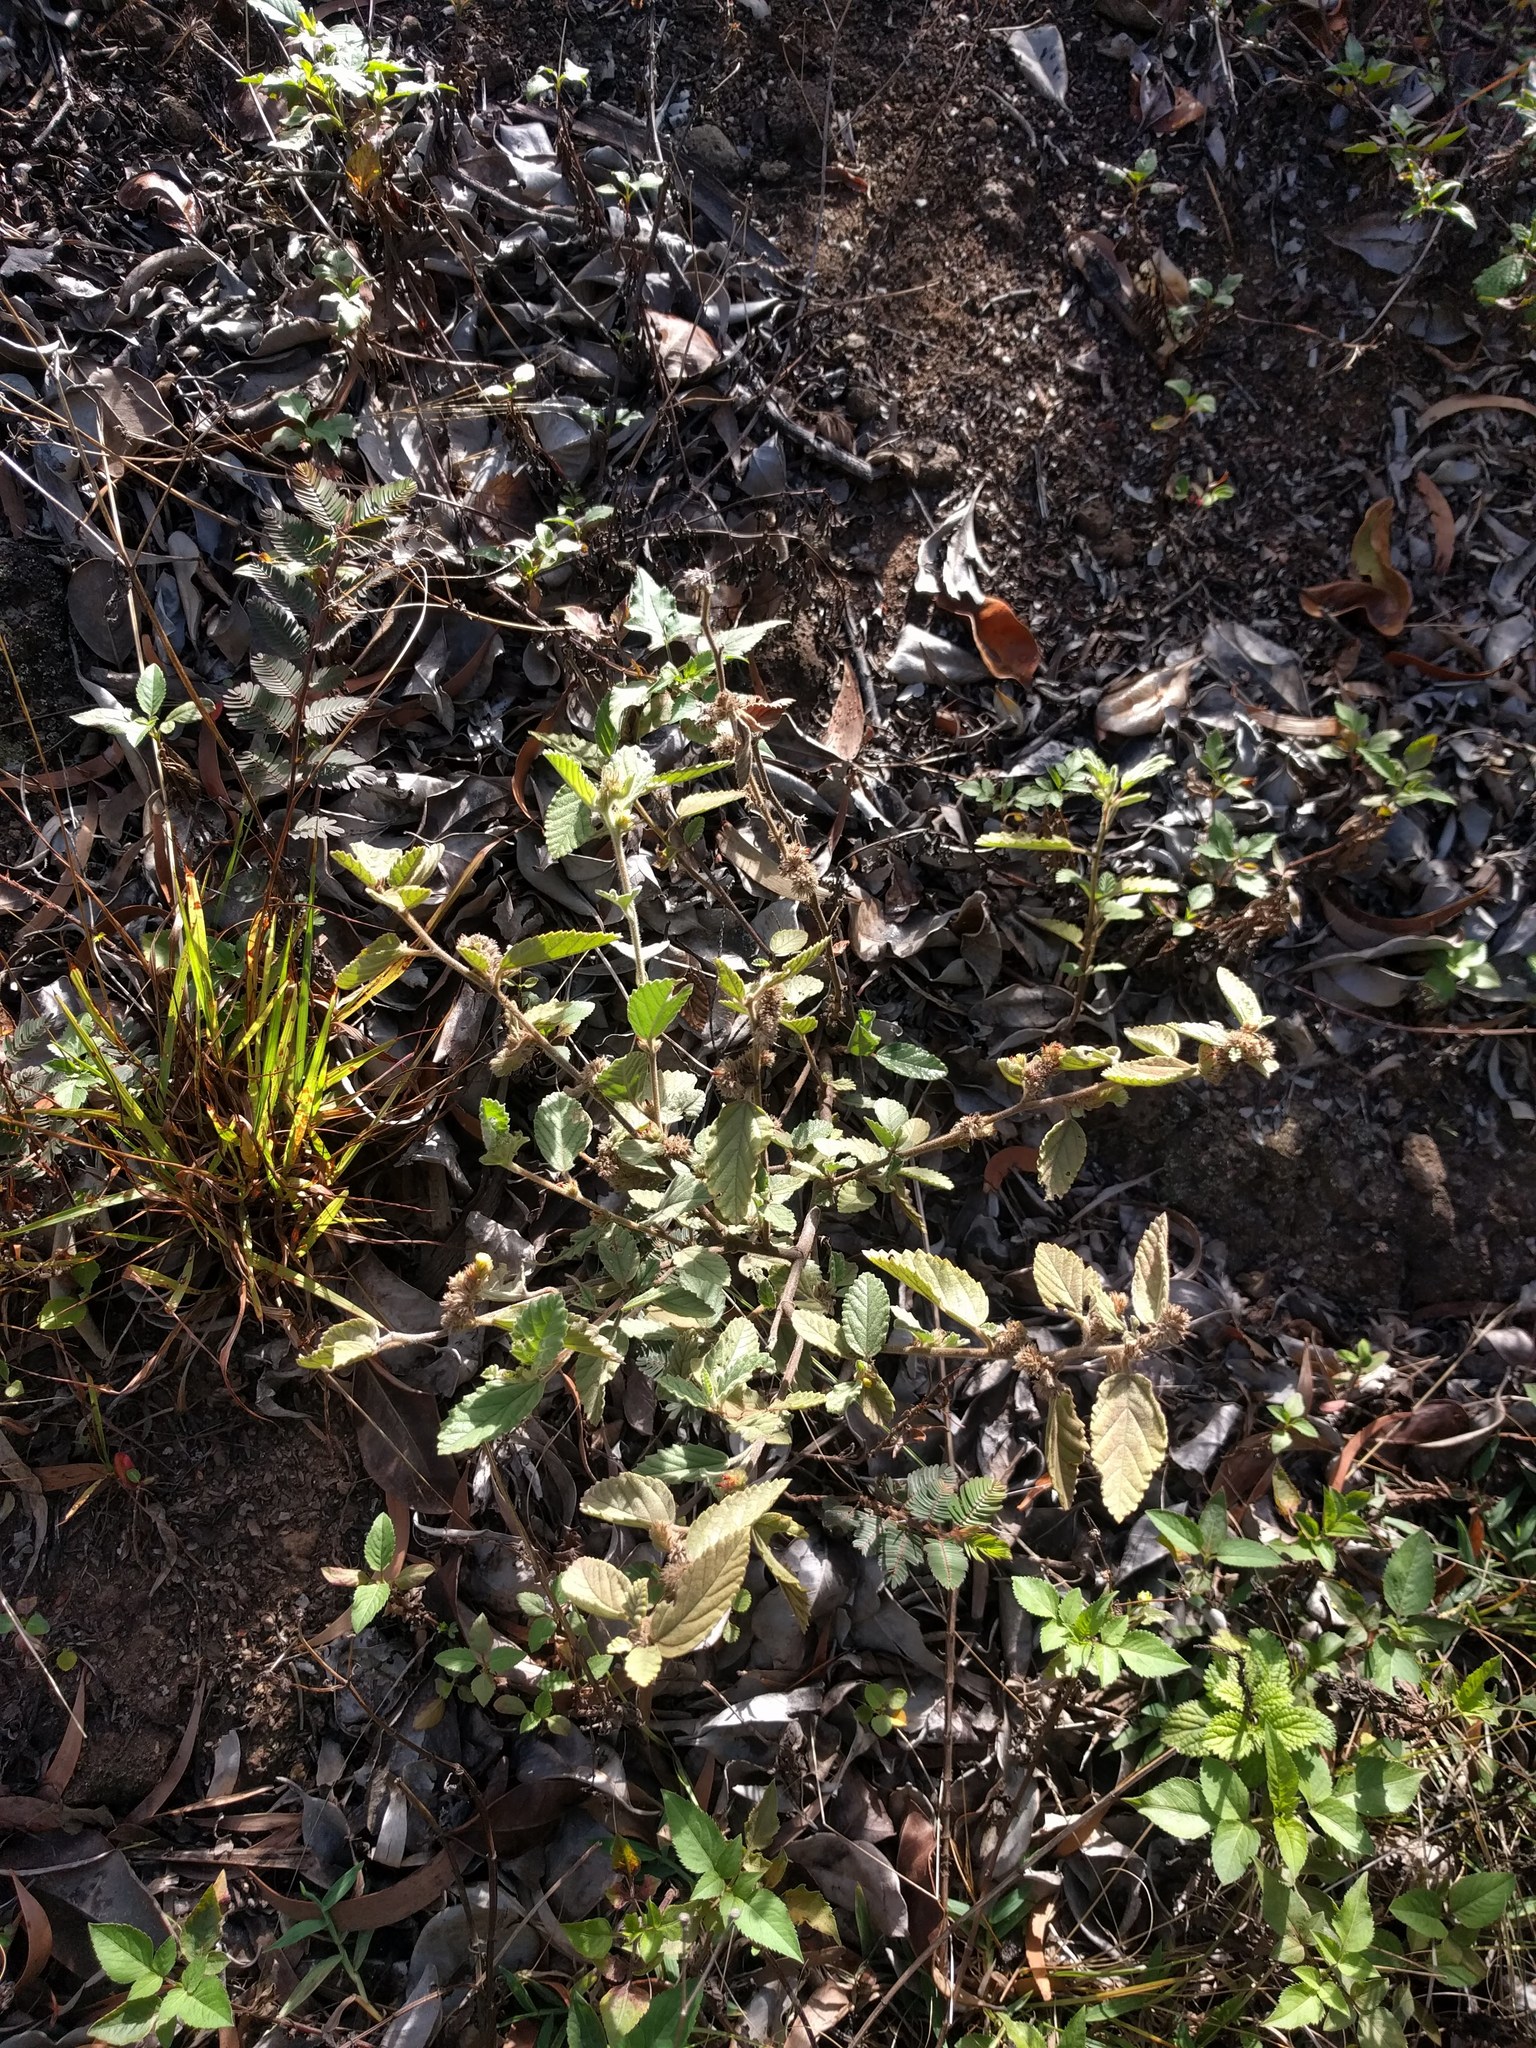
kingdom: Plantae
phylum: Tracheophyta
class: Magnoliopsida
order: Malvales
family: Malvaceae
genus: Waltheria
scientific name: Waltheria indica
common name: Leather-coat
